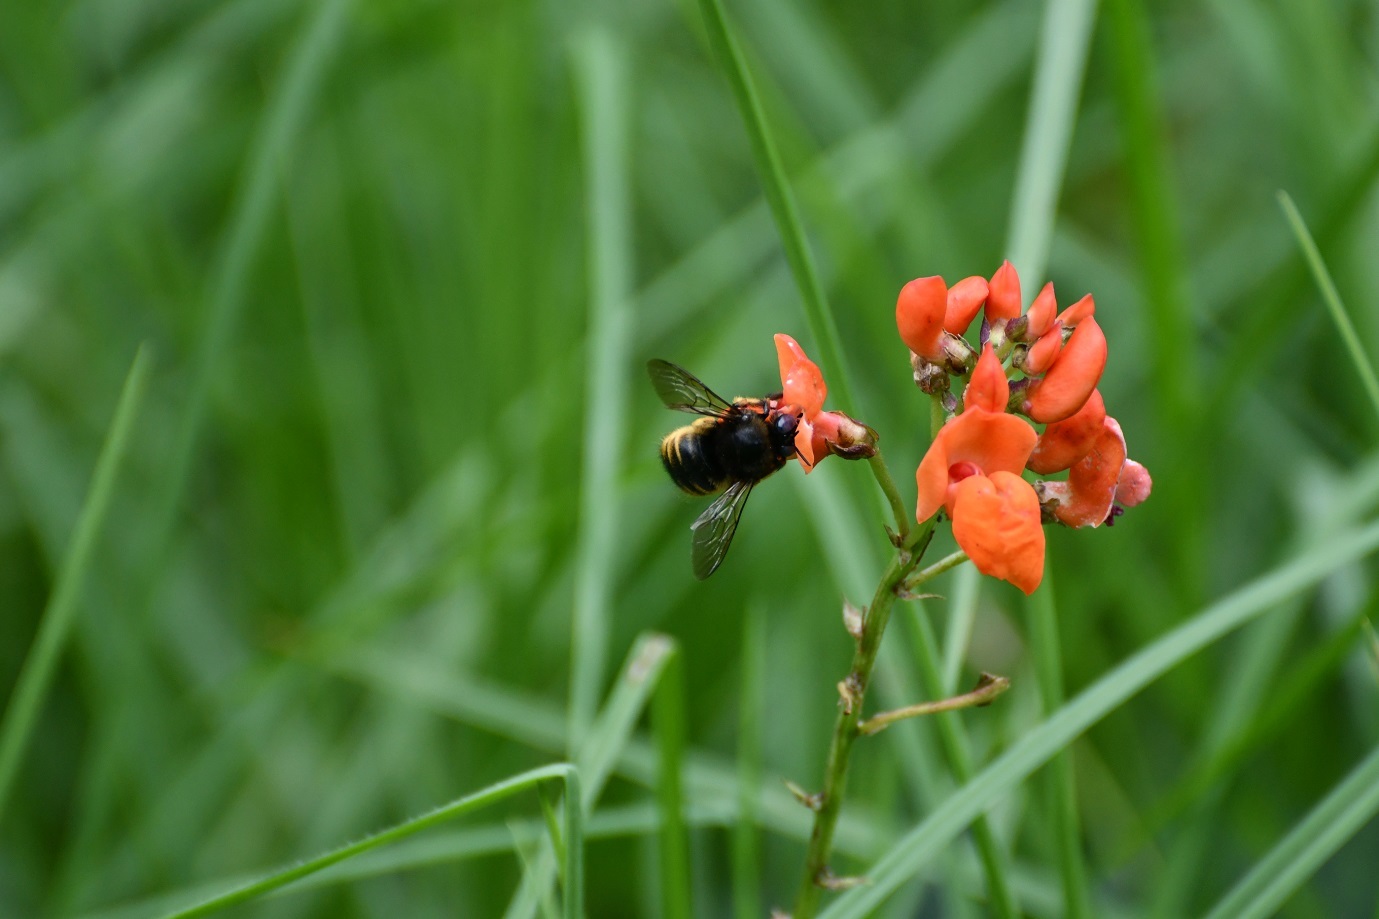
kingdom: Animalia
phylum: Arthropoda
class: Insecta
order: Hymenoptera
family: Apidae
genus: Xylocopa
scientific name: Xylocopa tabaniformis
